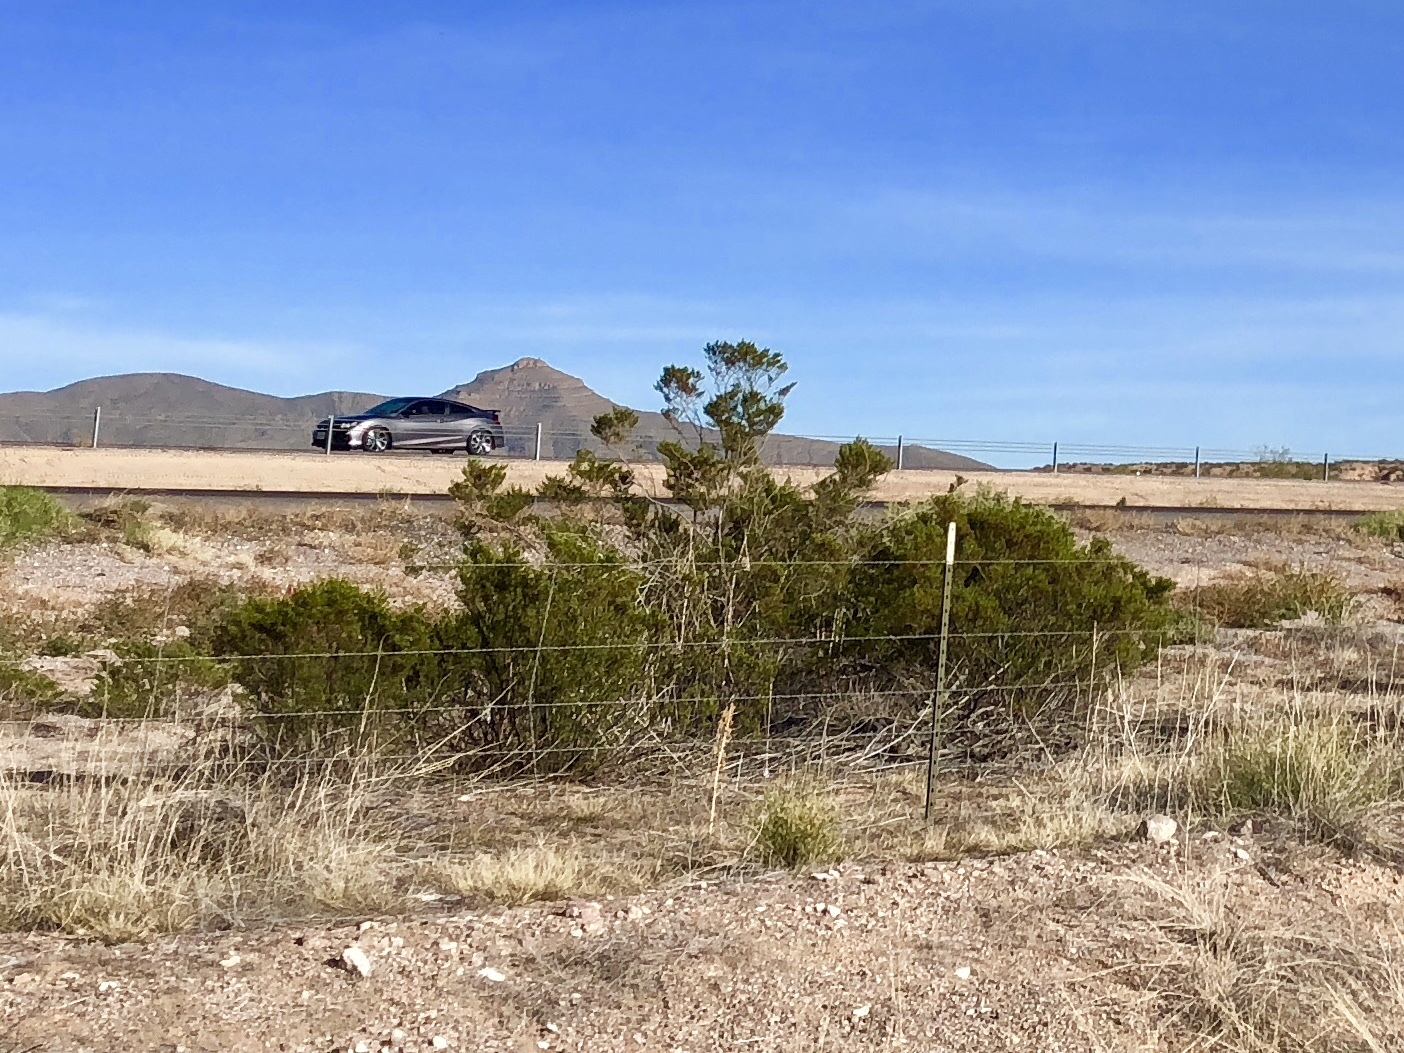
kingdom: Plantae
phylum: Tracheophyta
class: Magnoliopsida
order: Zygophyllales
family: Zygophyllaceae
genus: Larrea
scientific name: Larrea tridentata
